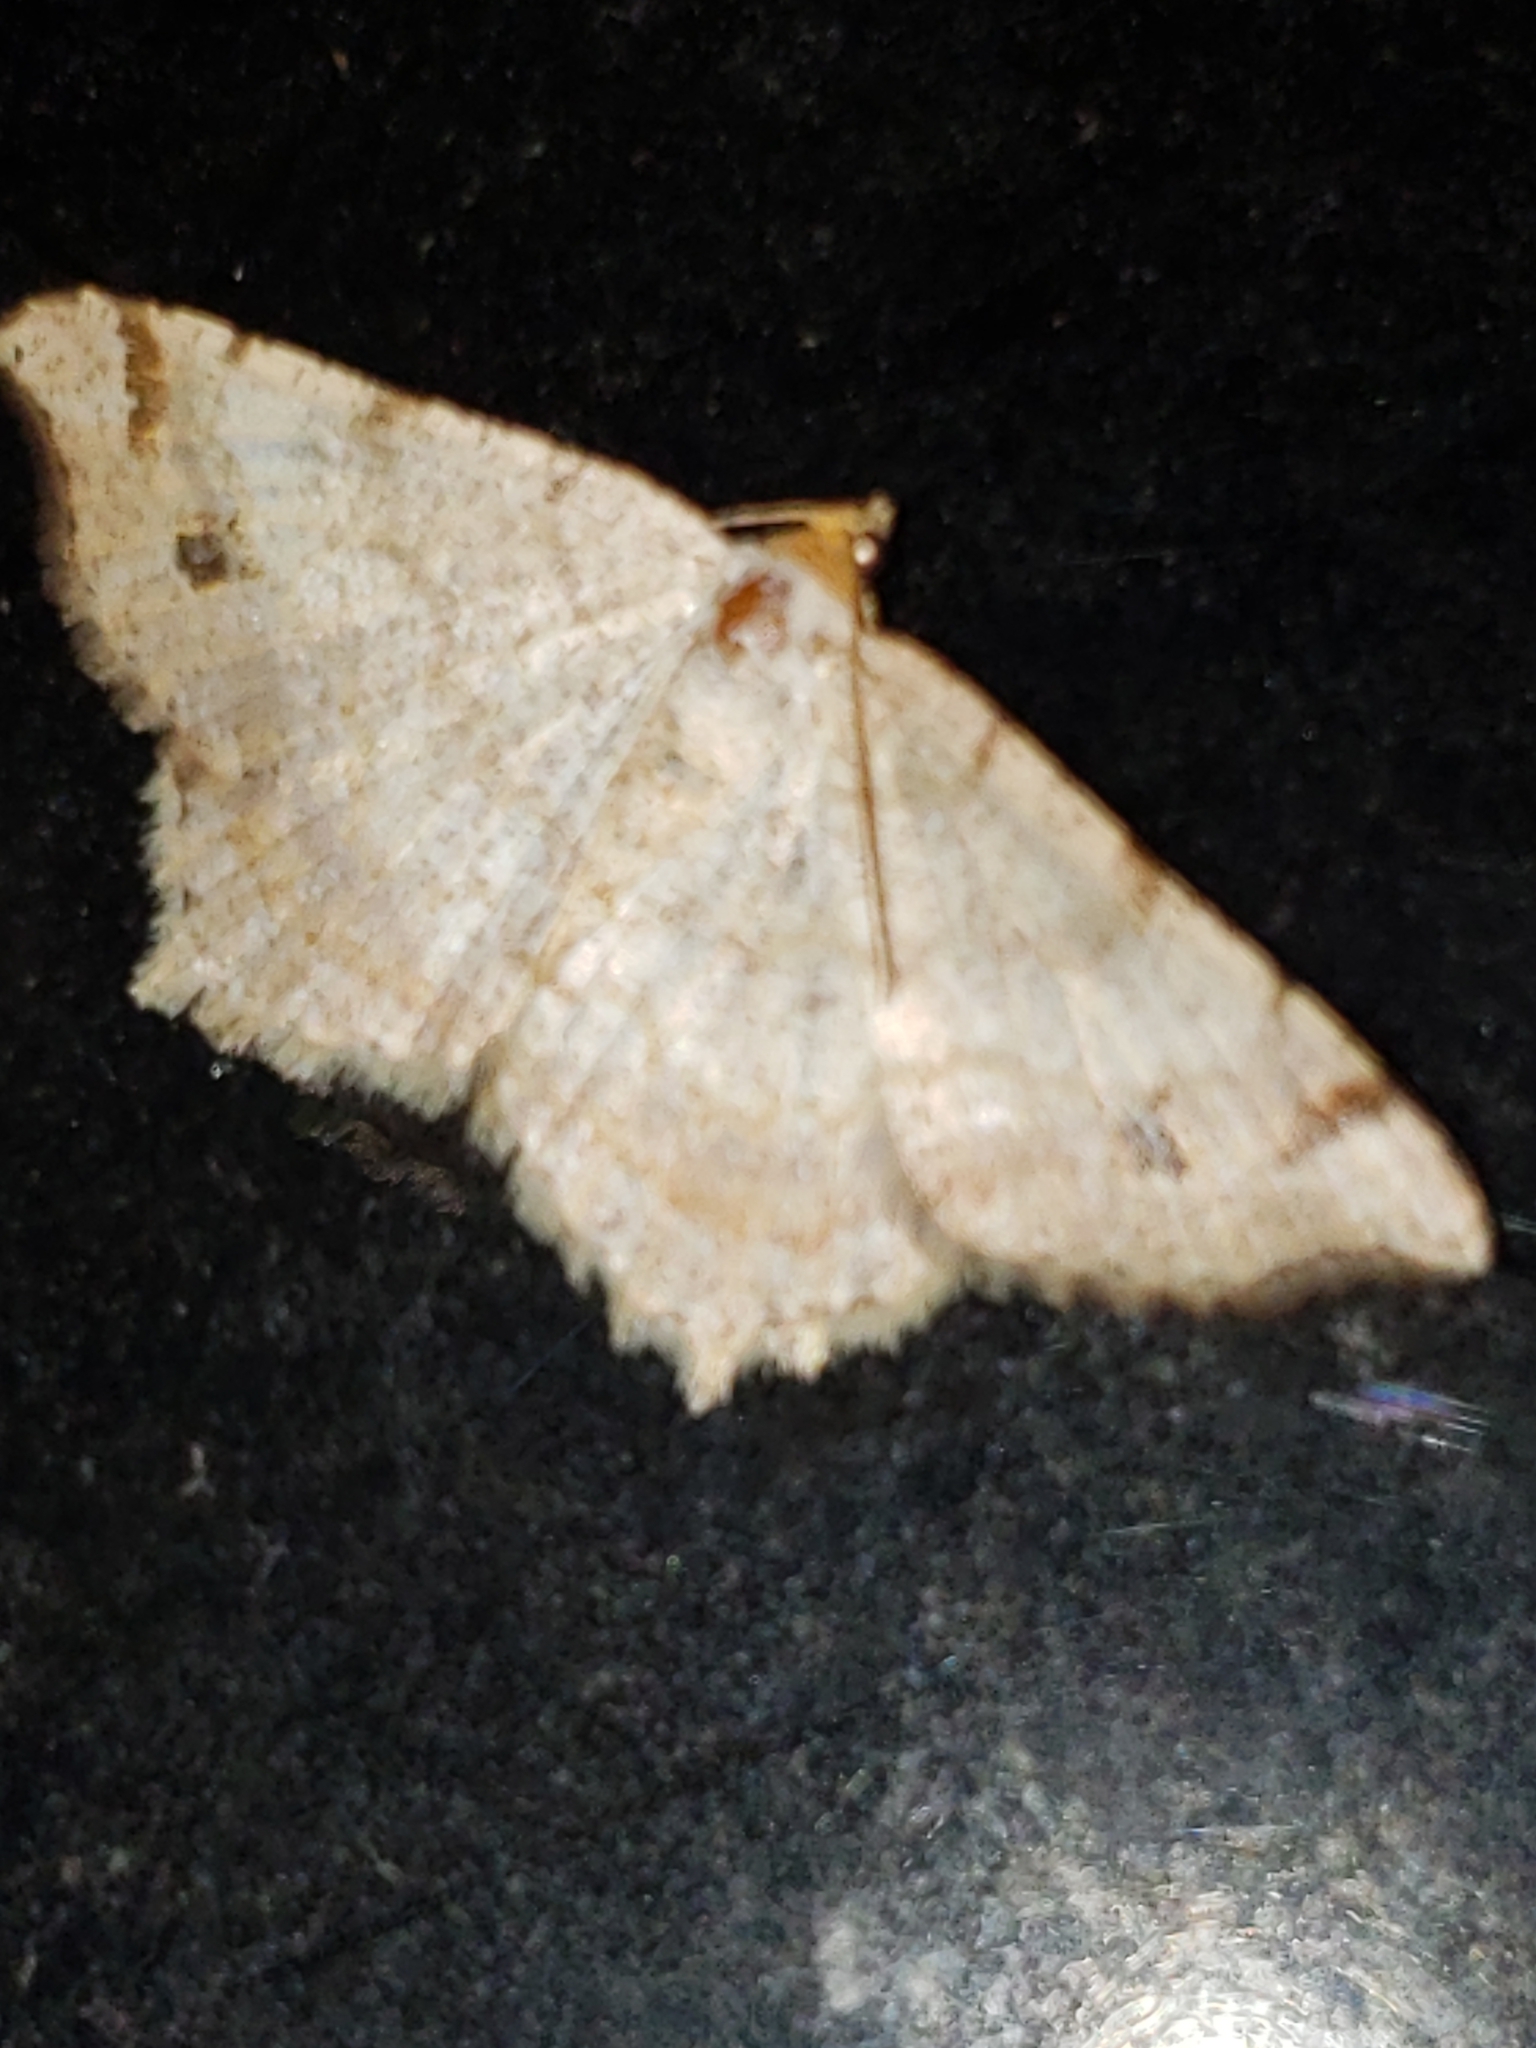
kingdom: Animalia
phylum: Arthropoda
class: Insecta
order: Lepidoptera
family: Geometridae
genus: Macaria
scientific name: Macaria bisignata
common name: Red-headed inchworm
